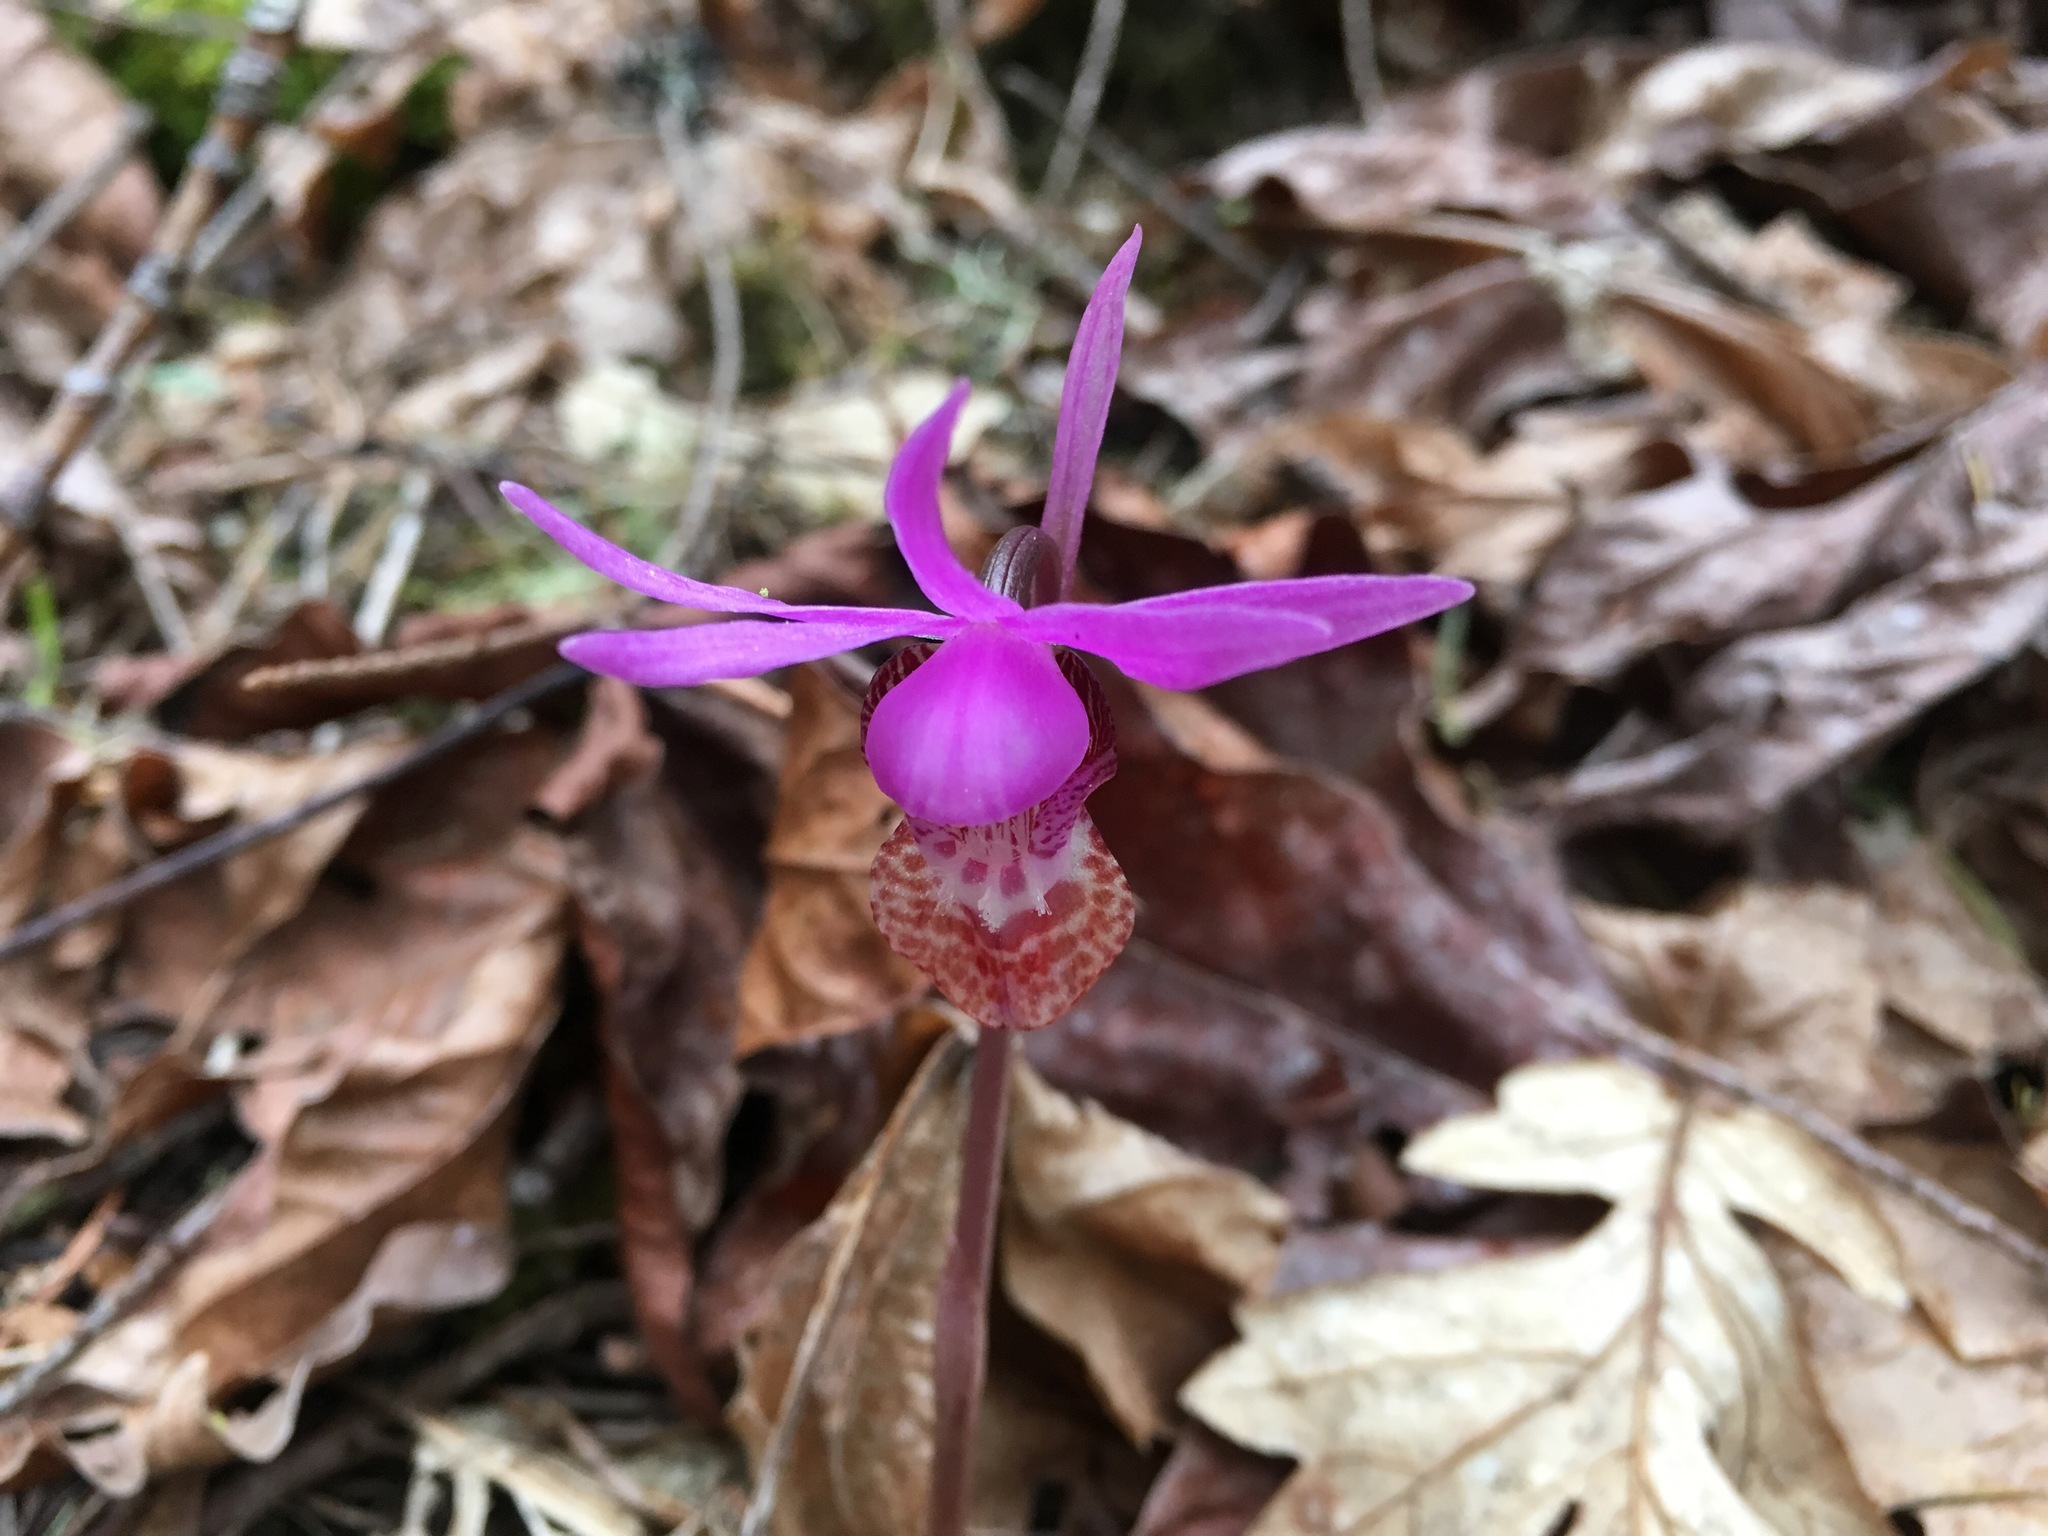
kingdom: Plantae
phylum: Tracheophyta
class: Liliopsida
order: Asparagales
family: Orchidaceae
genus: Calypso
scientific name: Calypso bulbosa
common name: Calypso
